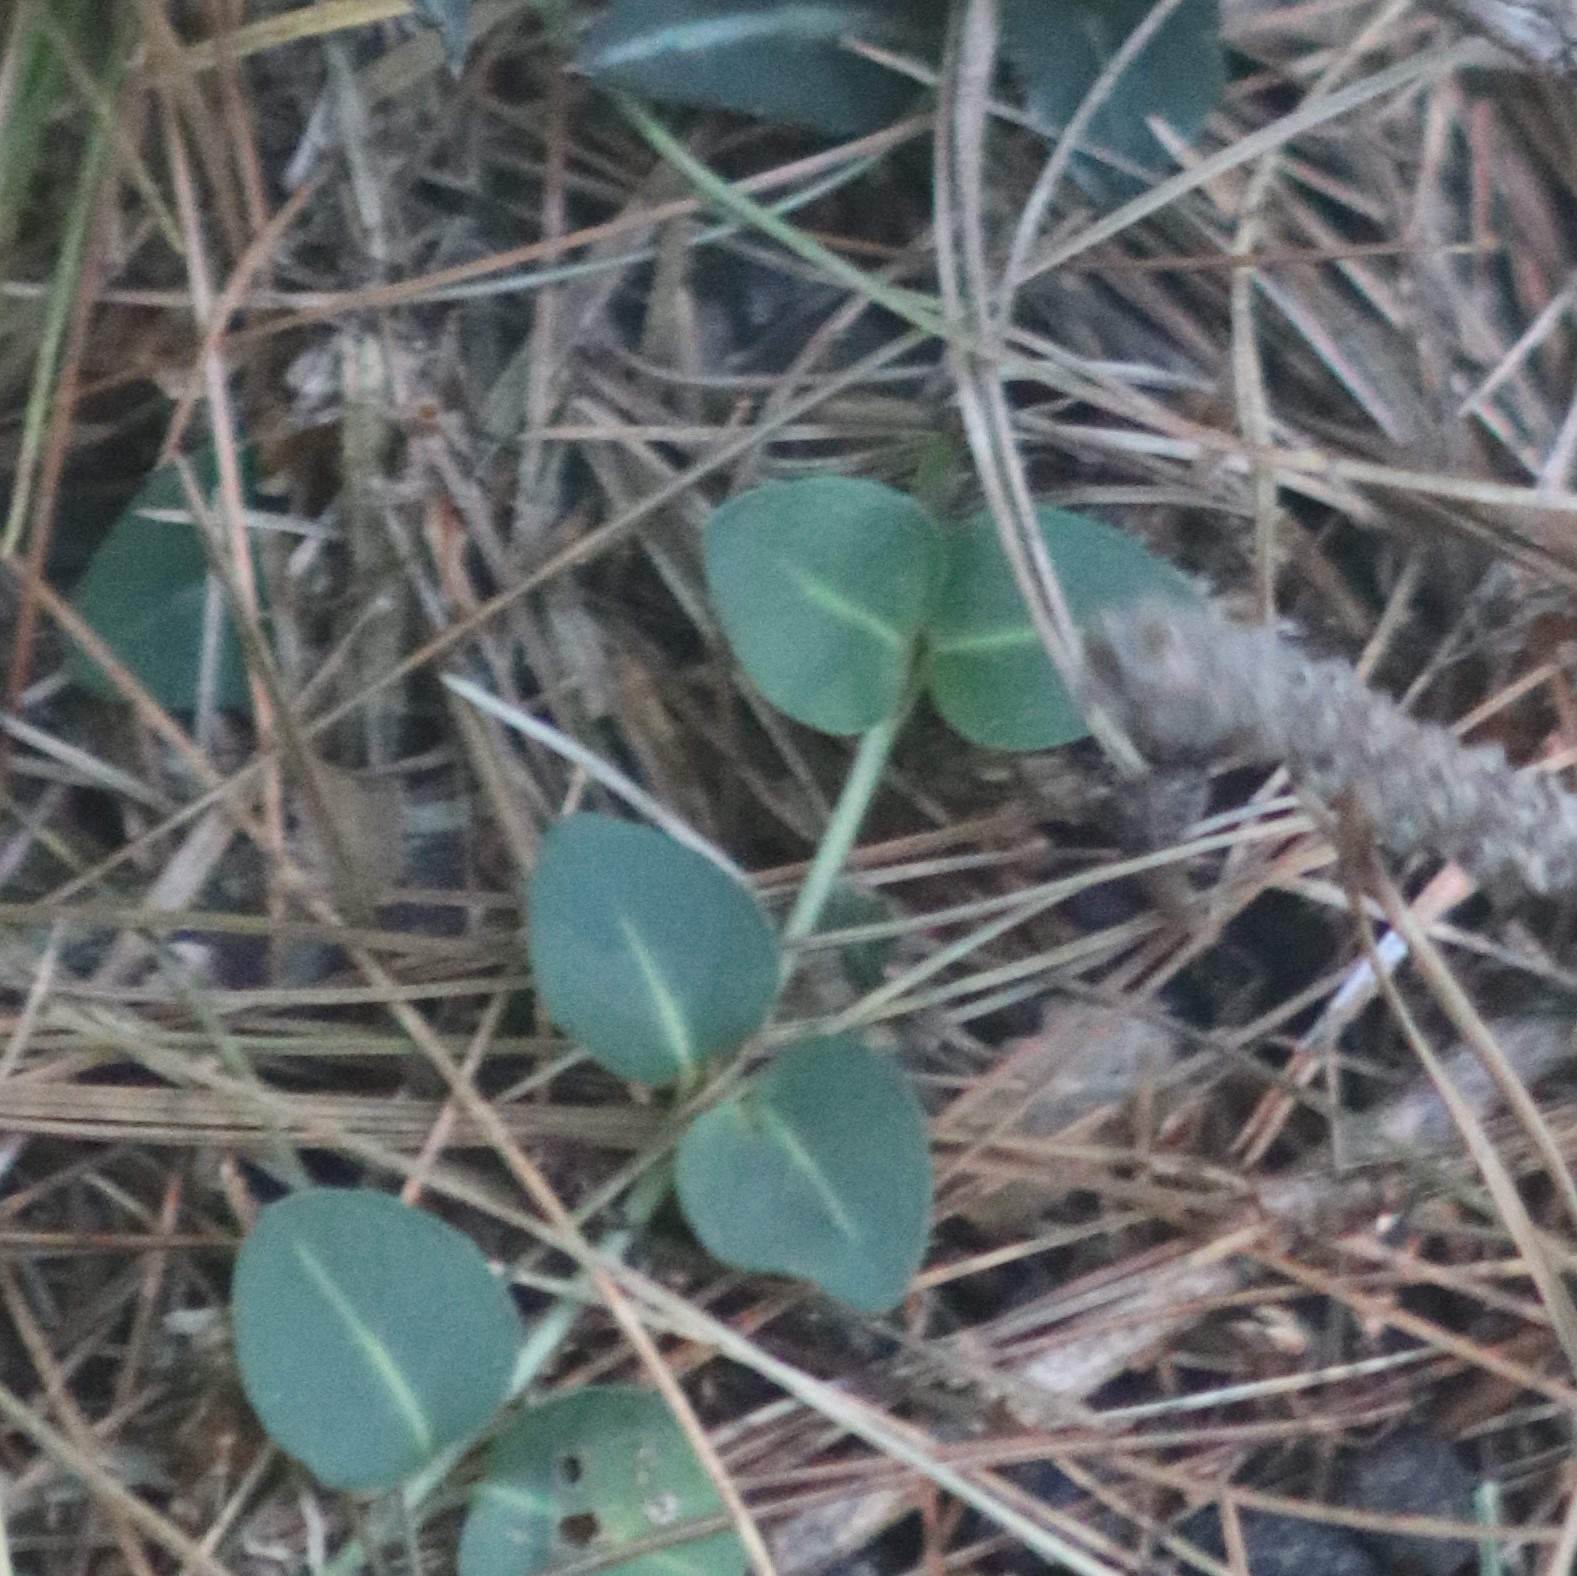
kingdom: Plantae
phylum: Tracheophyta
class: Magnoliopsida
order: Gentianales
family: Rubiaceae
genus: Mitchella
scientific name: Mitchella repens
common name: Partridge-berry
